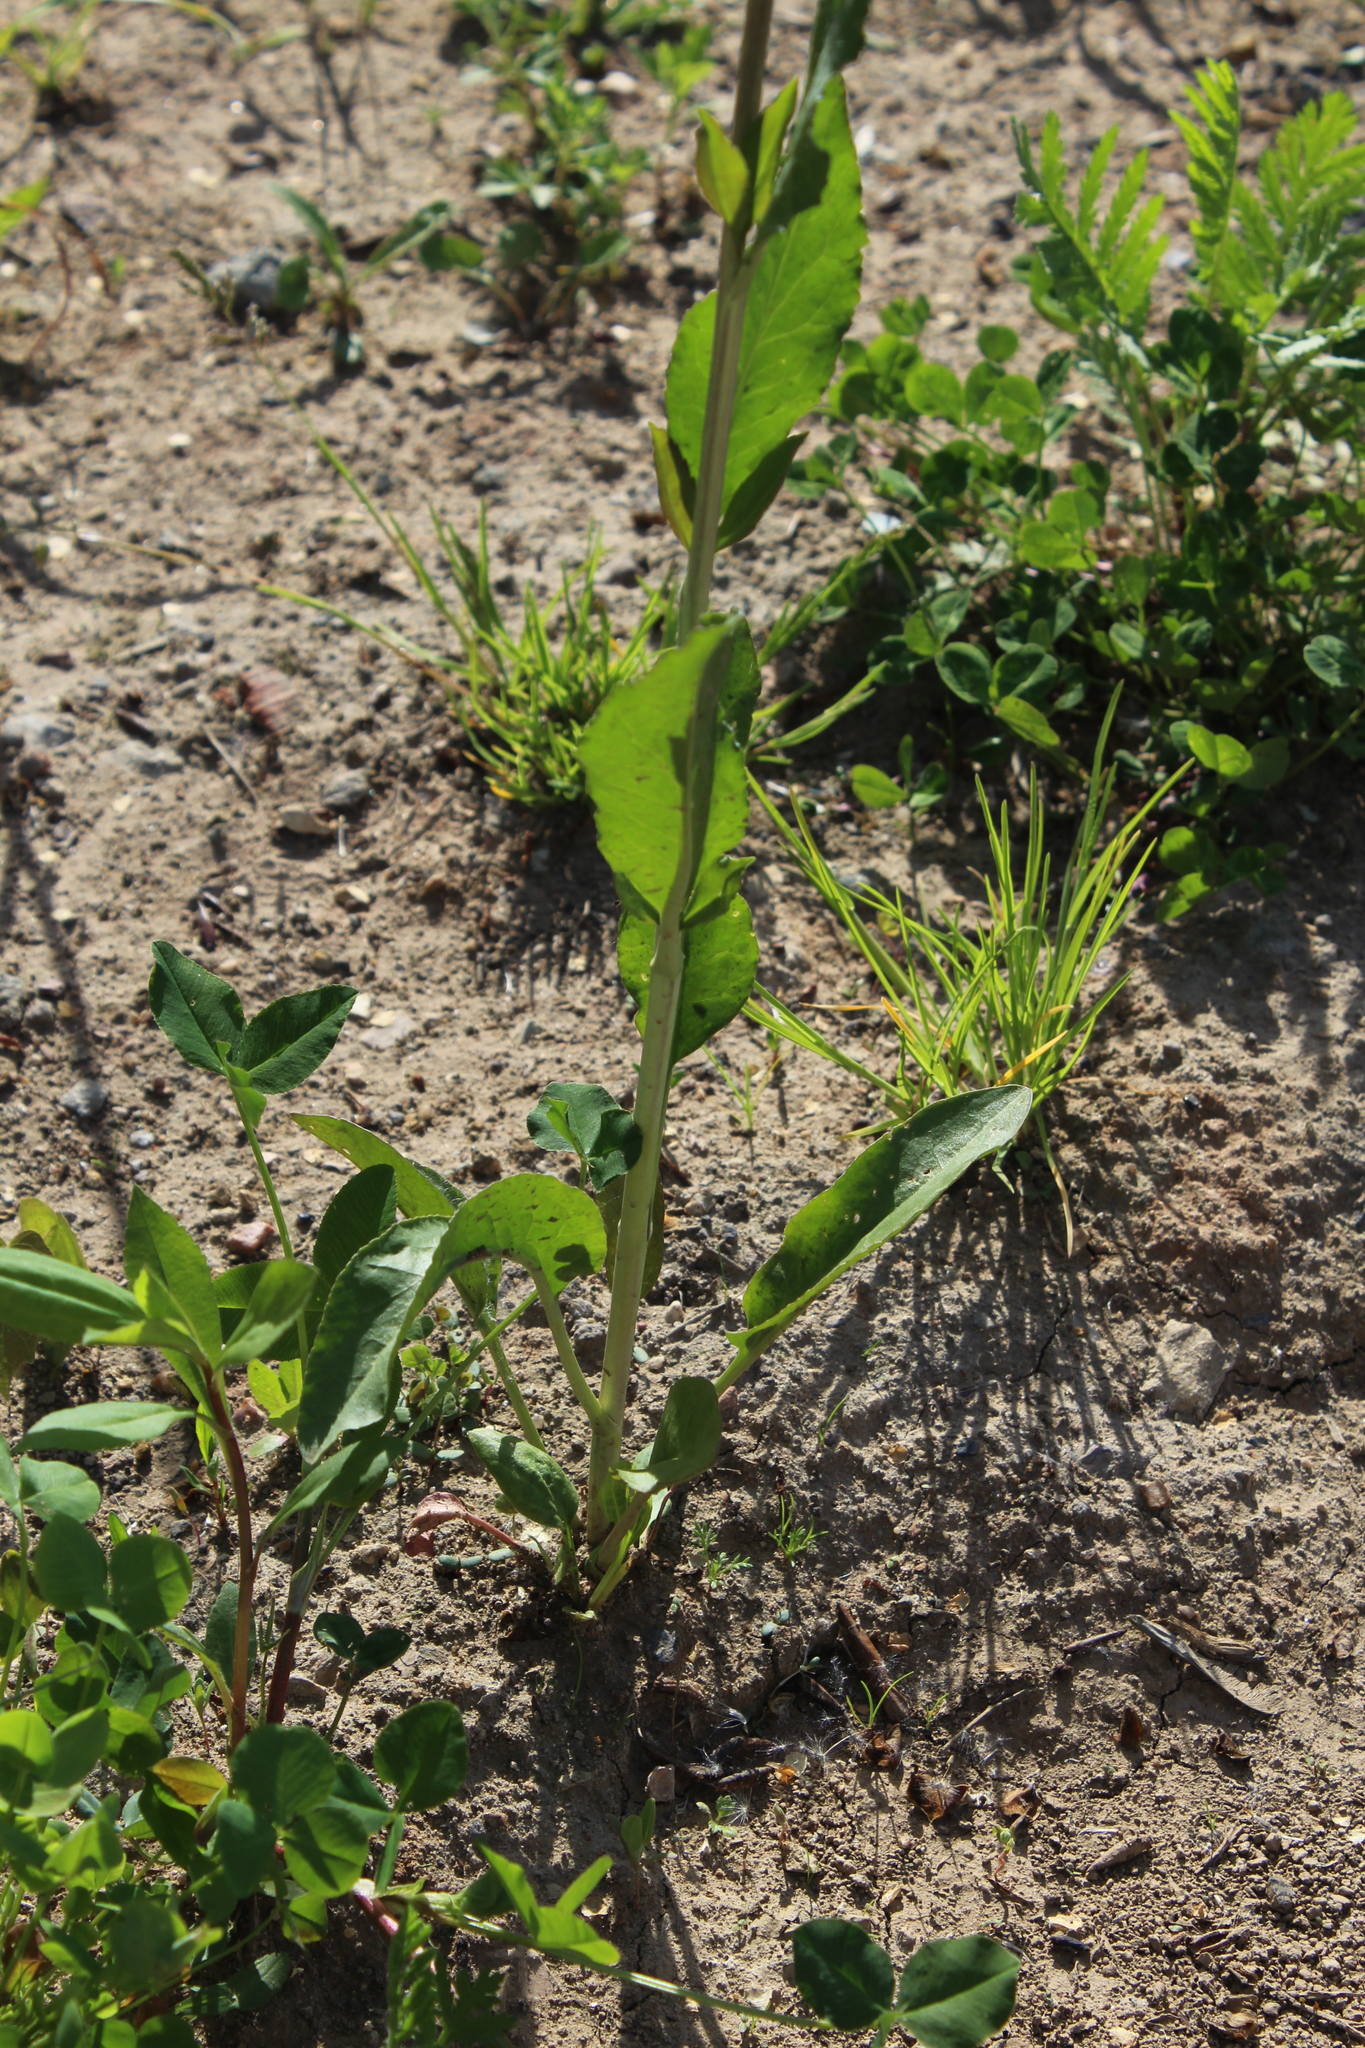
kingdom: Plantae
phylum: Tracheophyta
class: Magnoliopsida
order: Brassicales
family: Brassicaceae
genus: Sisymbrium
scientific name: Sisymbrium volgense
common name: Russian mustard
